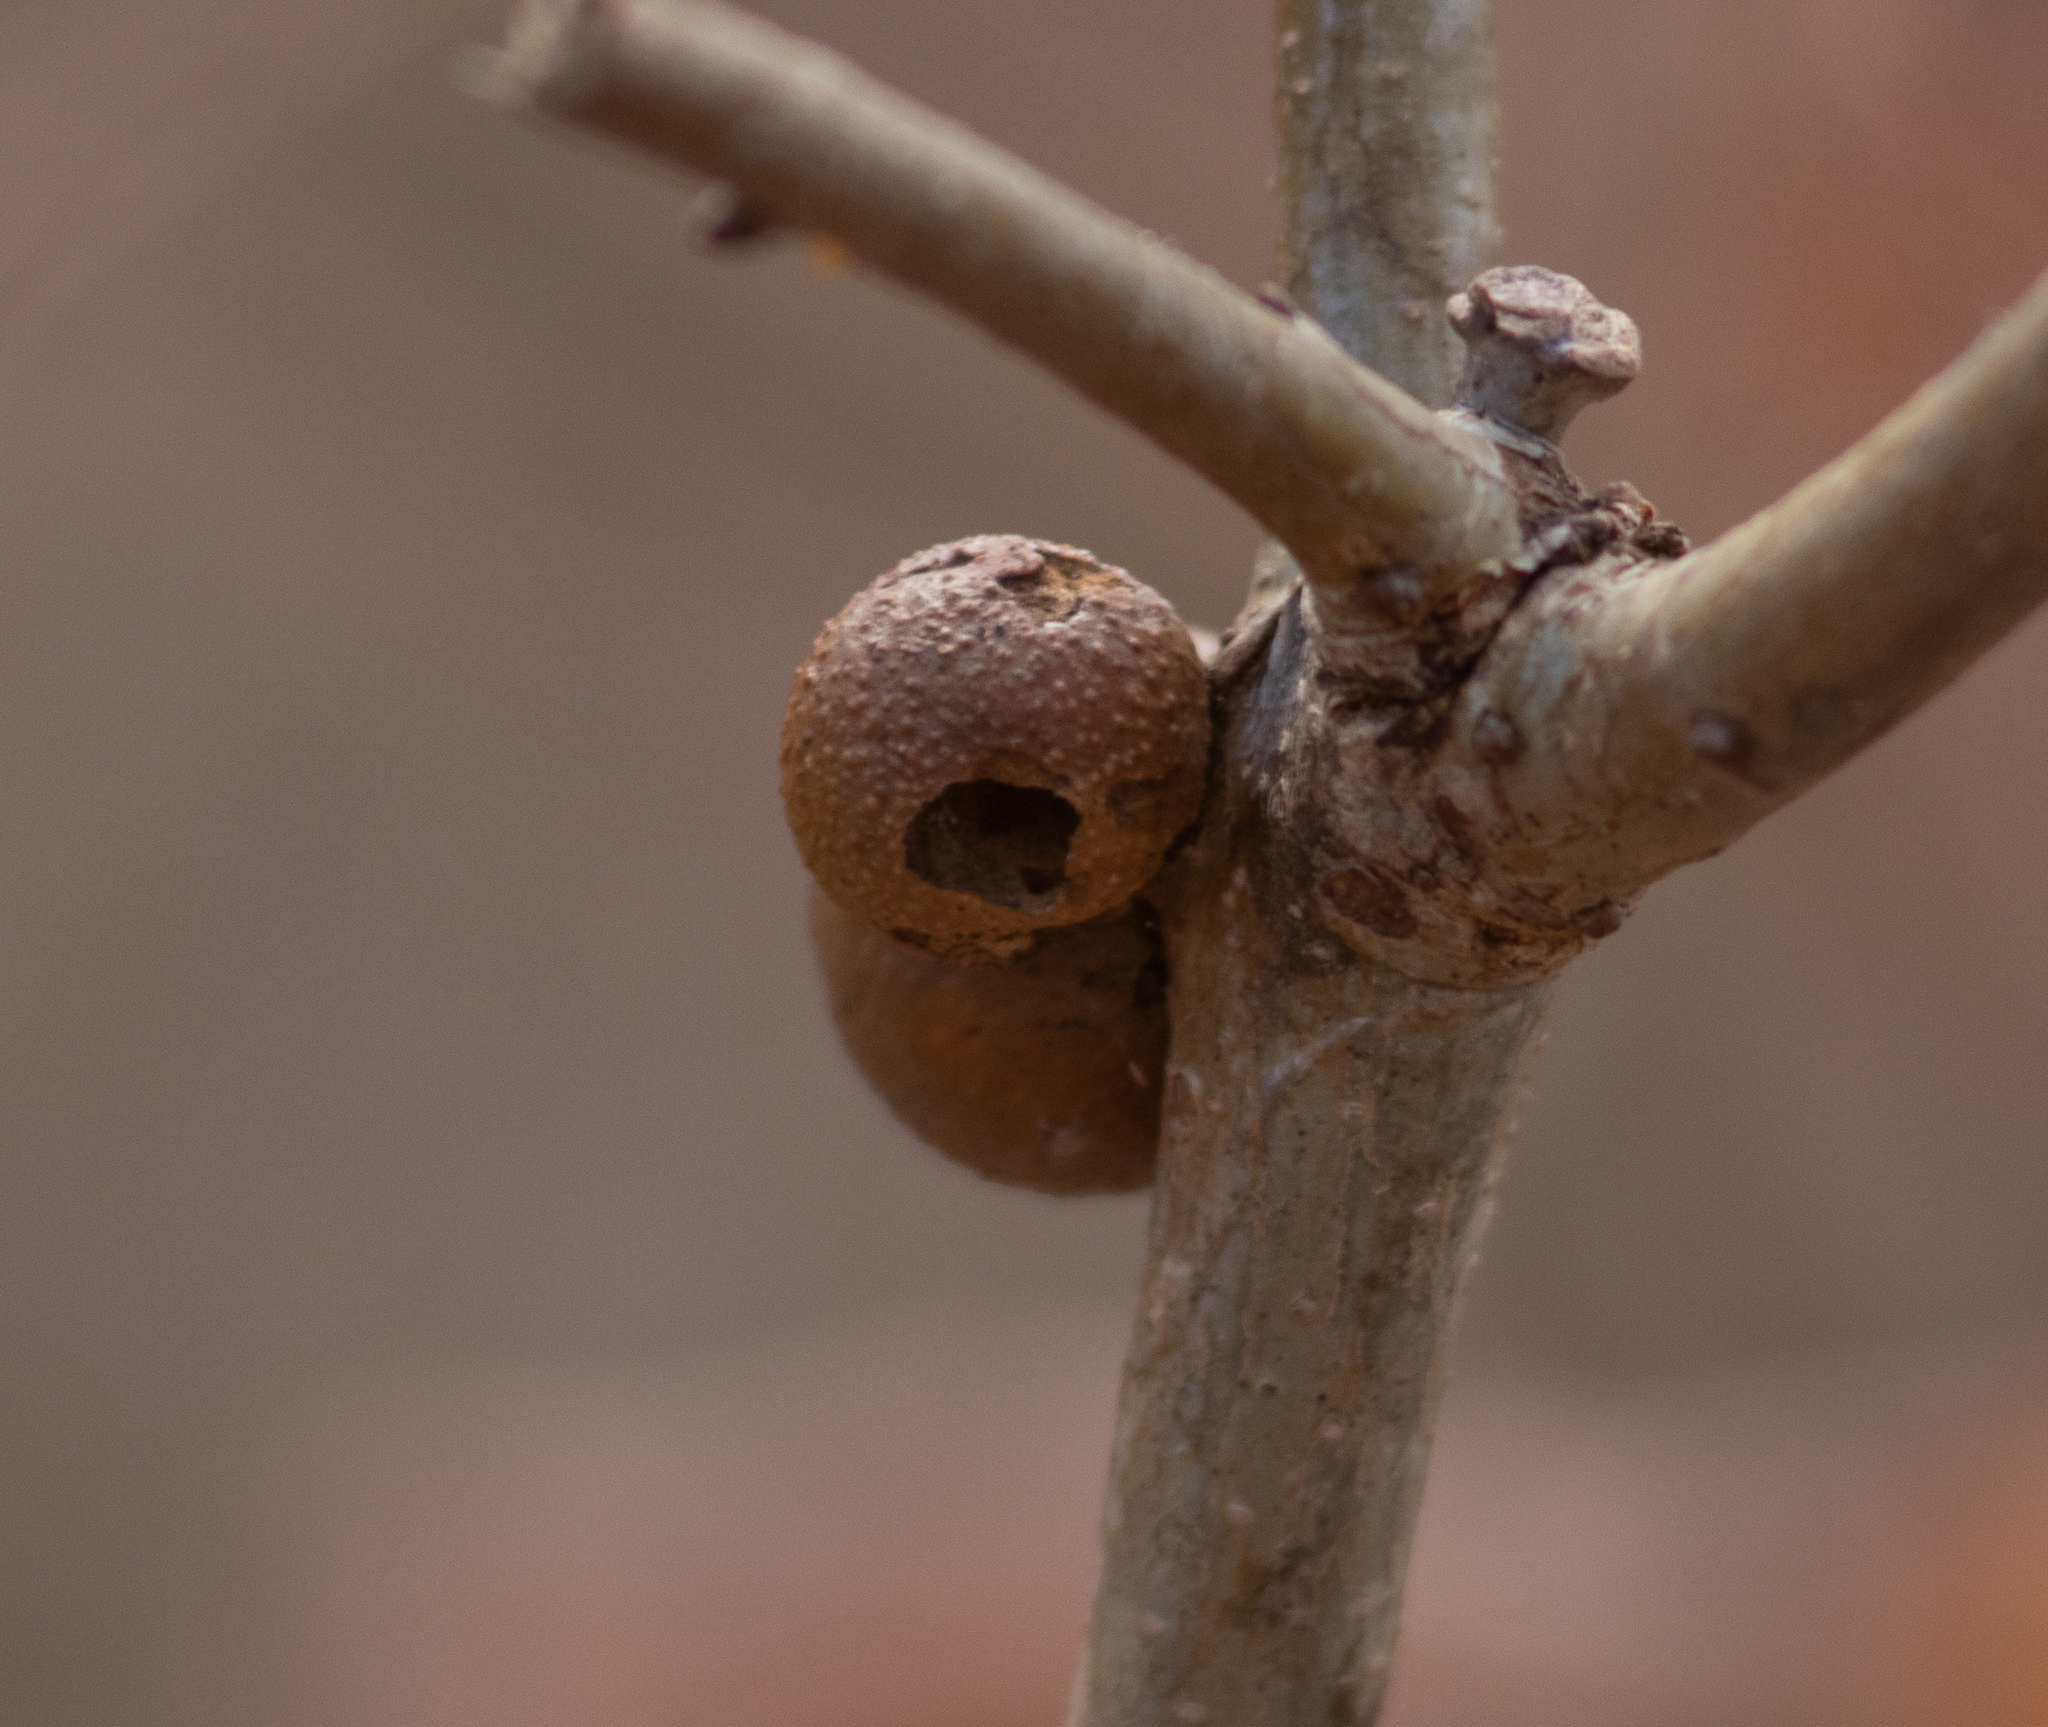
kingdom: Animalia
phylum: Arthropoda
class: Insecta
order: Hymenoptera
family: Cynipidae
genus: Disholcaspis
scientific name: Disholcaspis quercusglobulus
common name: Round bullet gall wasp
